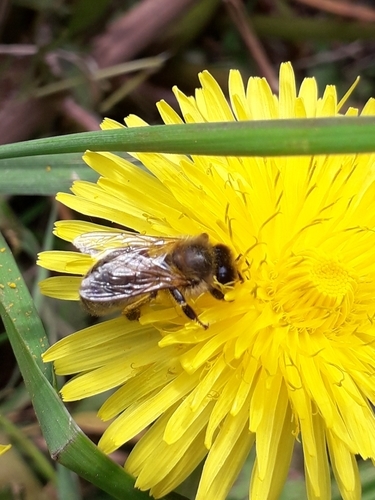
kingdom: Animalia
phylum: Arthropoda
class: Insecta
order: Hymenoptera
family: Apidae
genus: Apis
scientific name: Apis mellifera
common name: Honey bee
